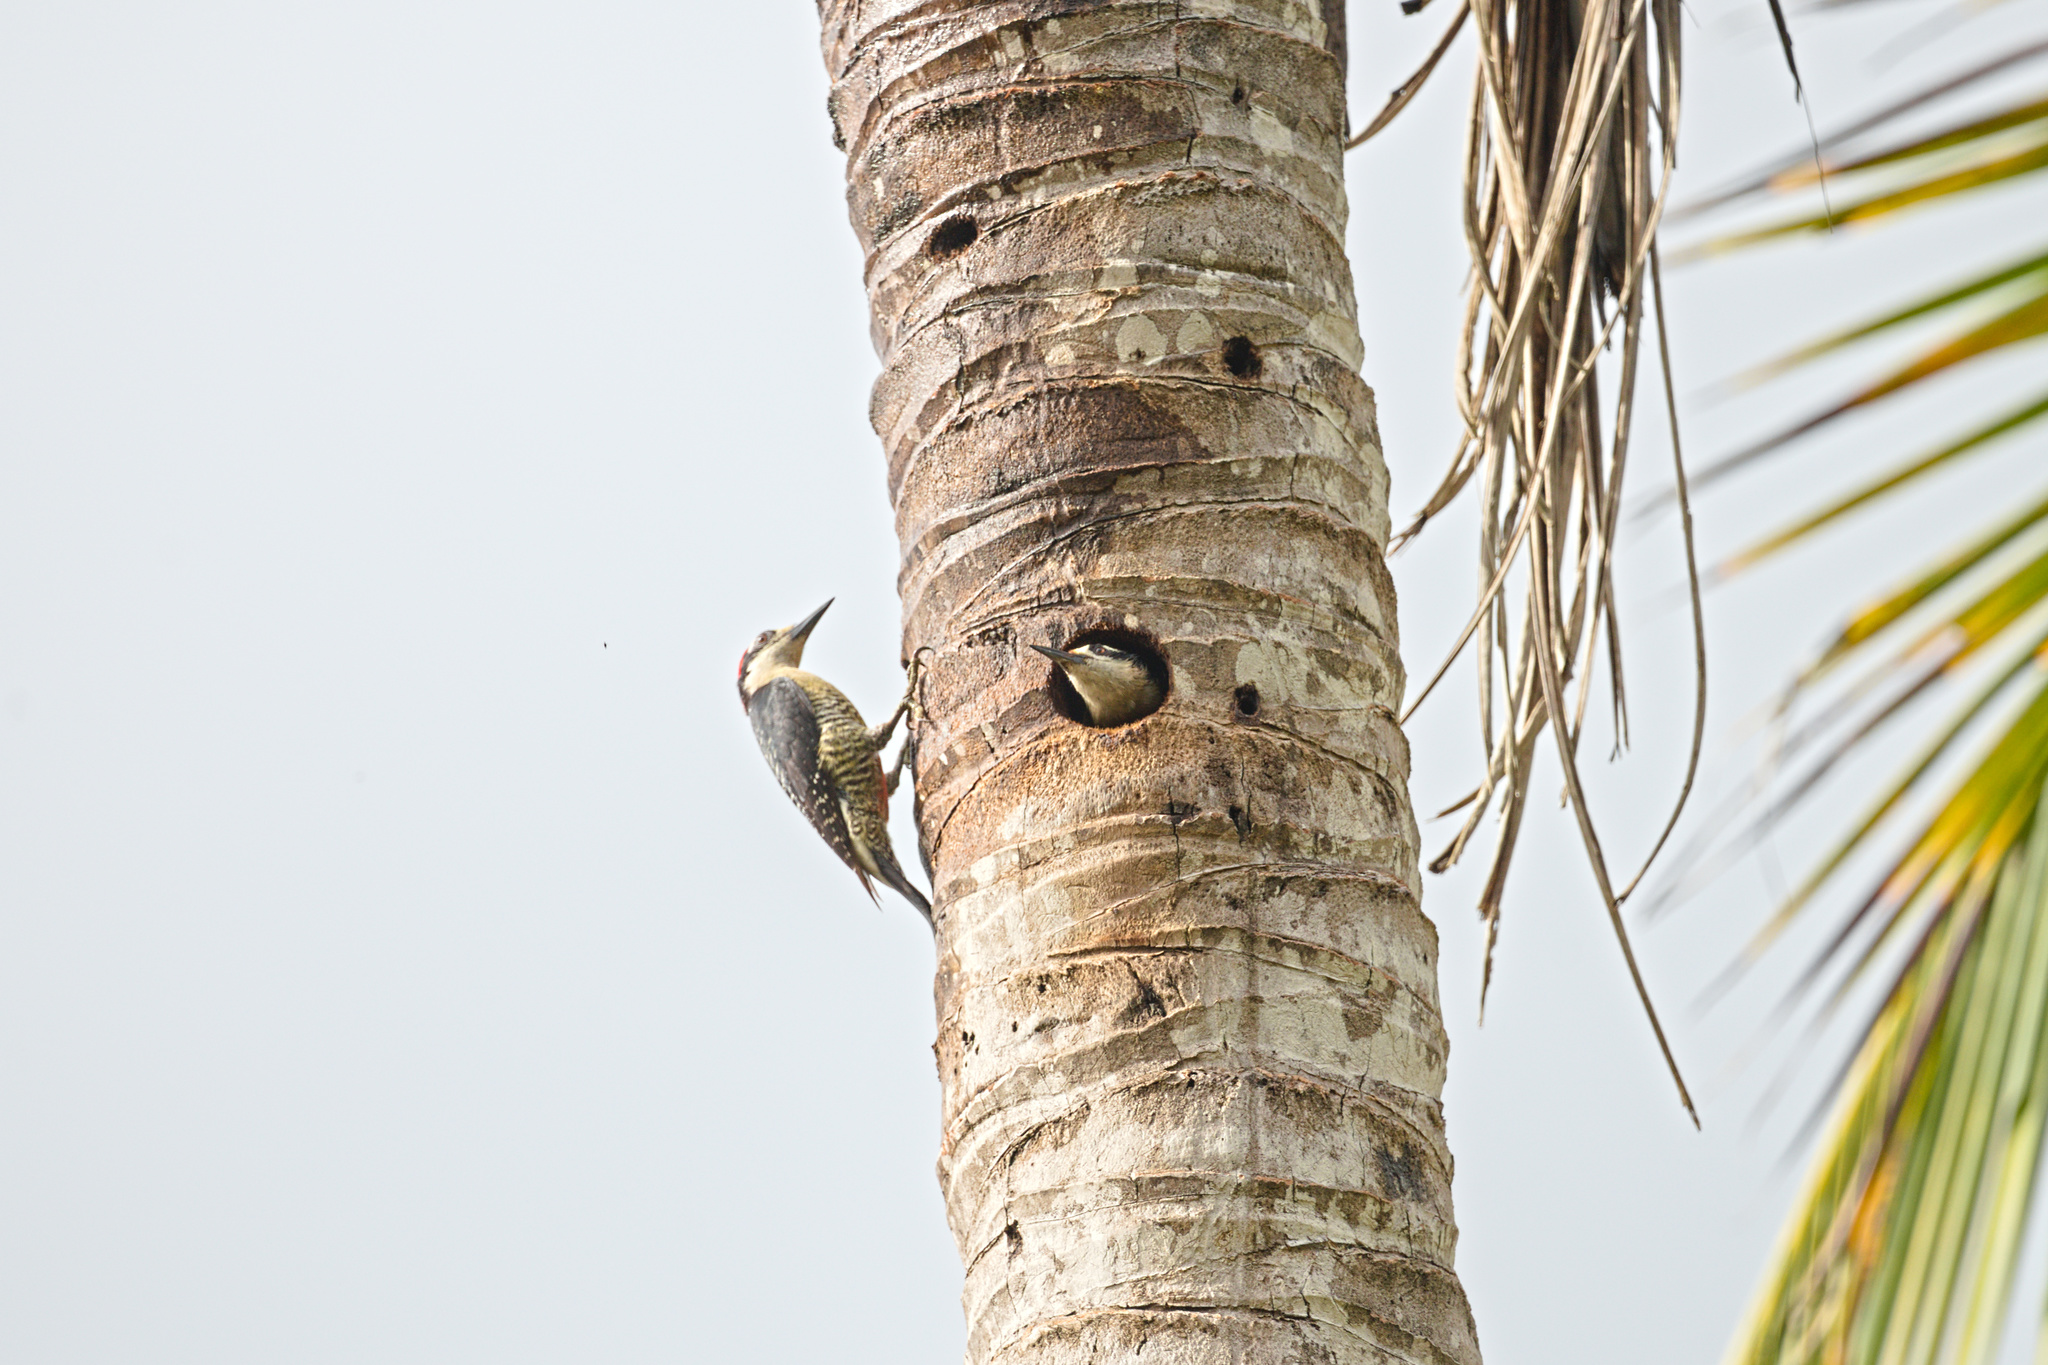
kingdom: Animalia
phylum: Chordata
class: Aves
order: Piciformes
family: Picidae
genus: Melanerpes
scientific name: Melanerpes pucherani
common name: Black-cheeked woodpecker
